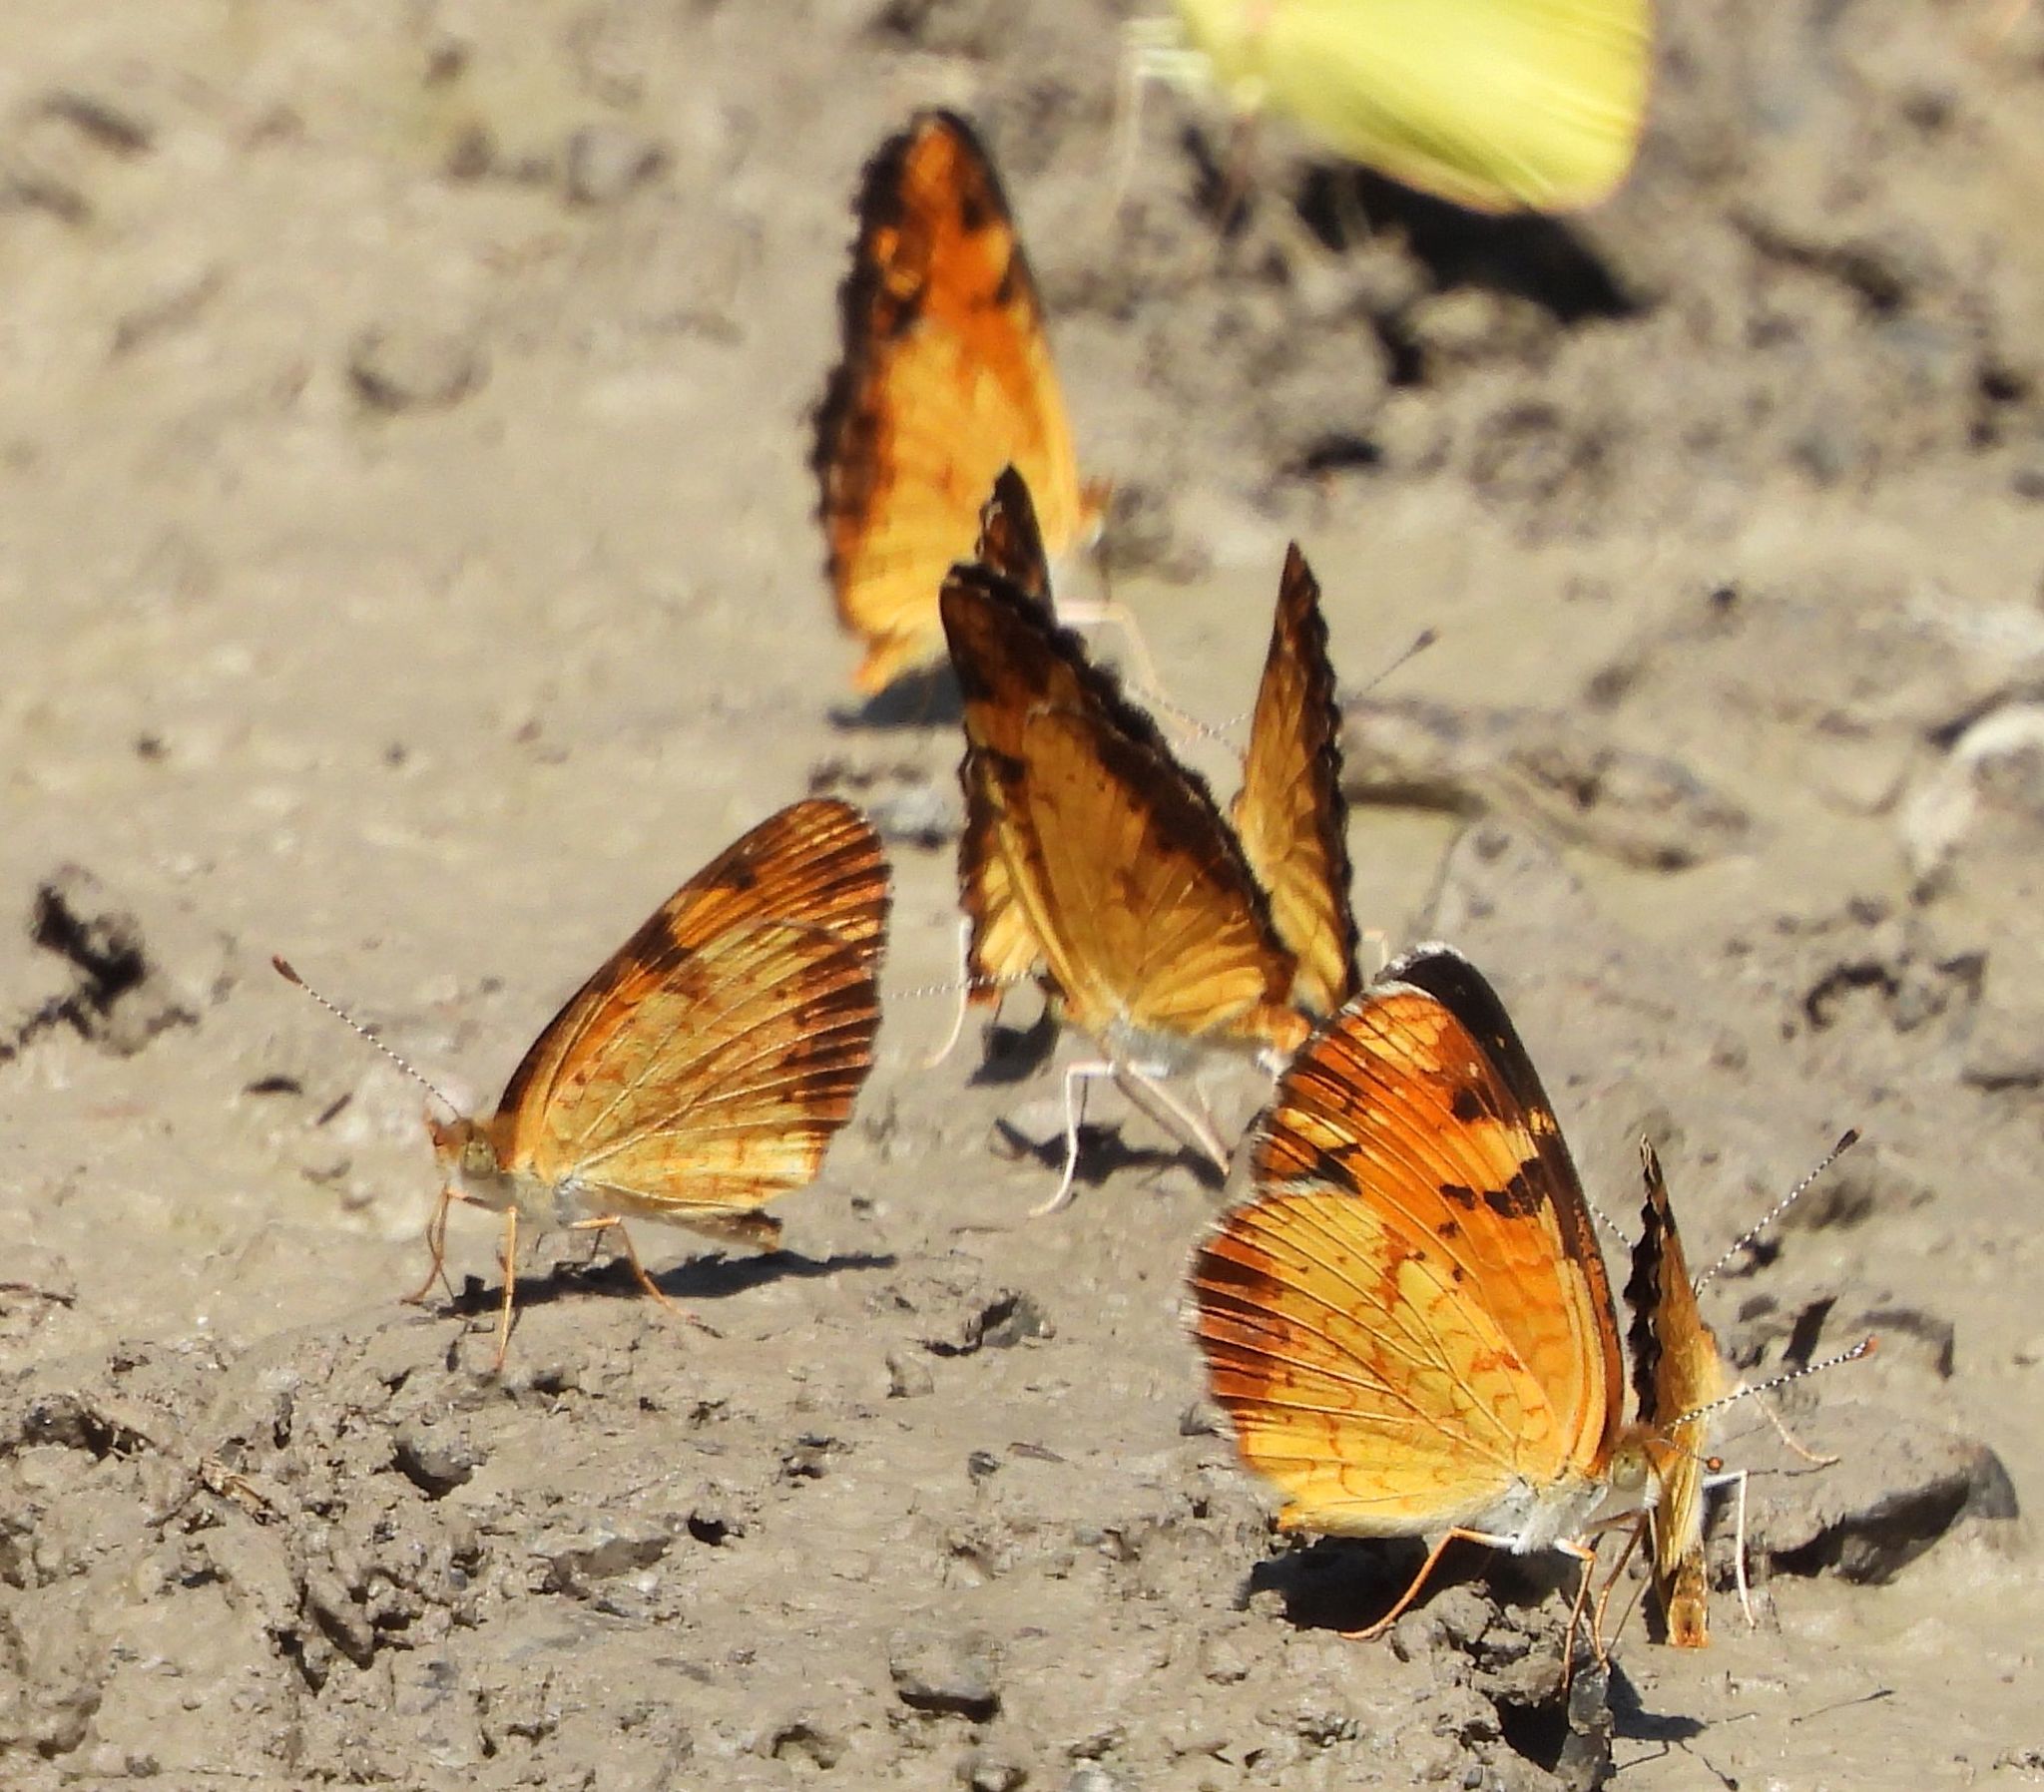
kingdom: Animalia
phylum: Arthropoda
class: Insecta
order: Lepidoptera
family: Nymphalidae
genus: Phyciodes
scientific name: Phyciodes tharos
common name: Pearl crescent
